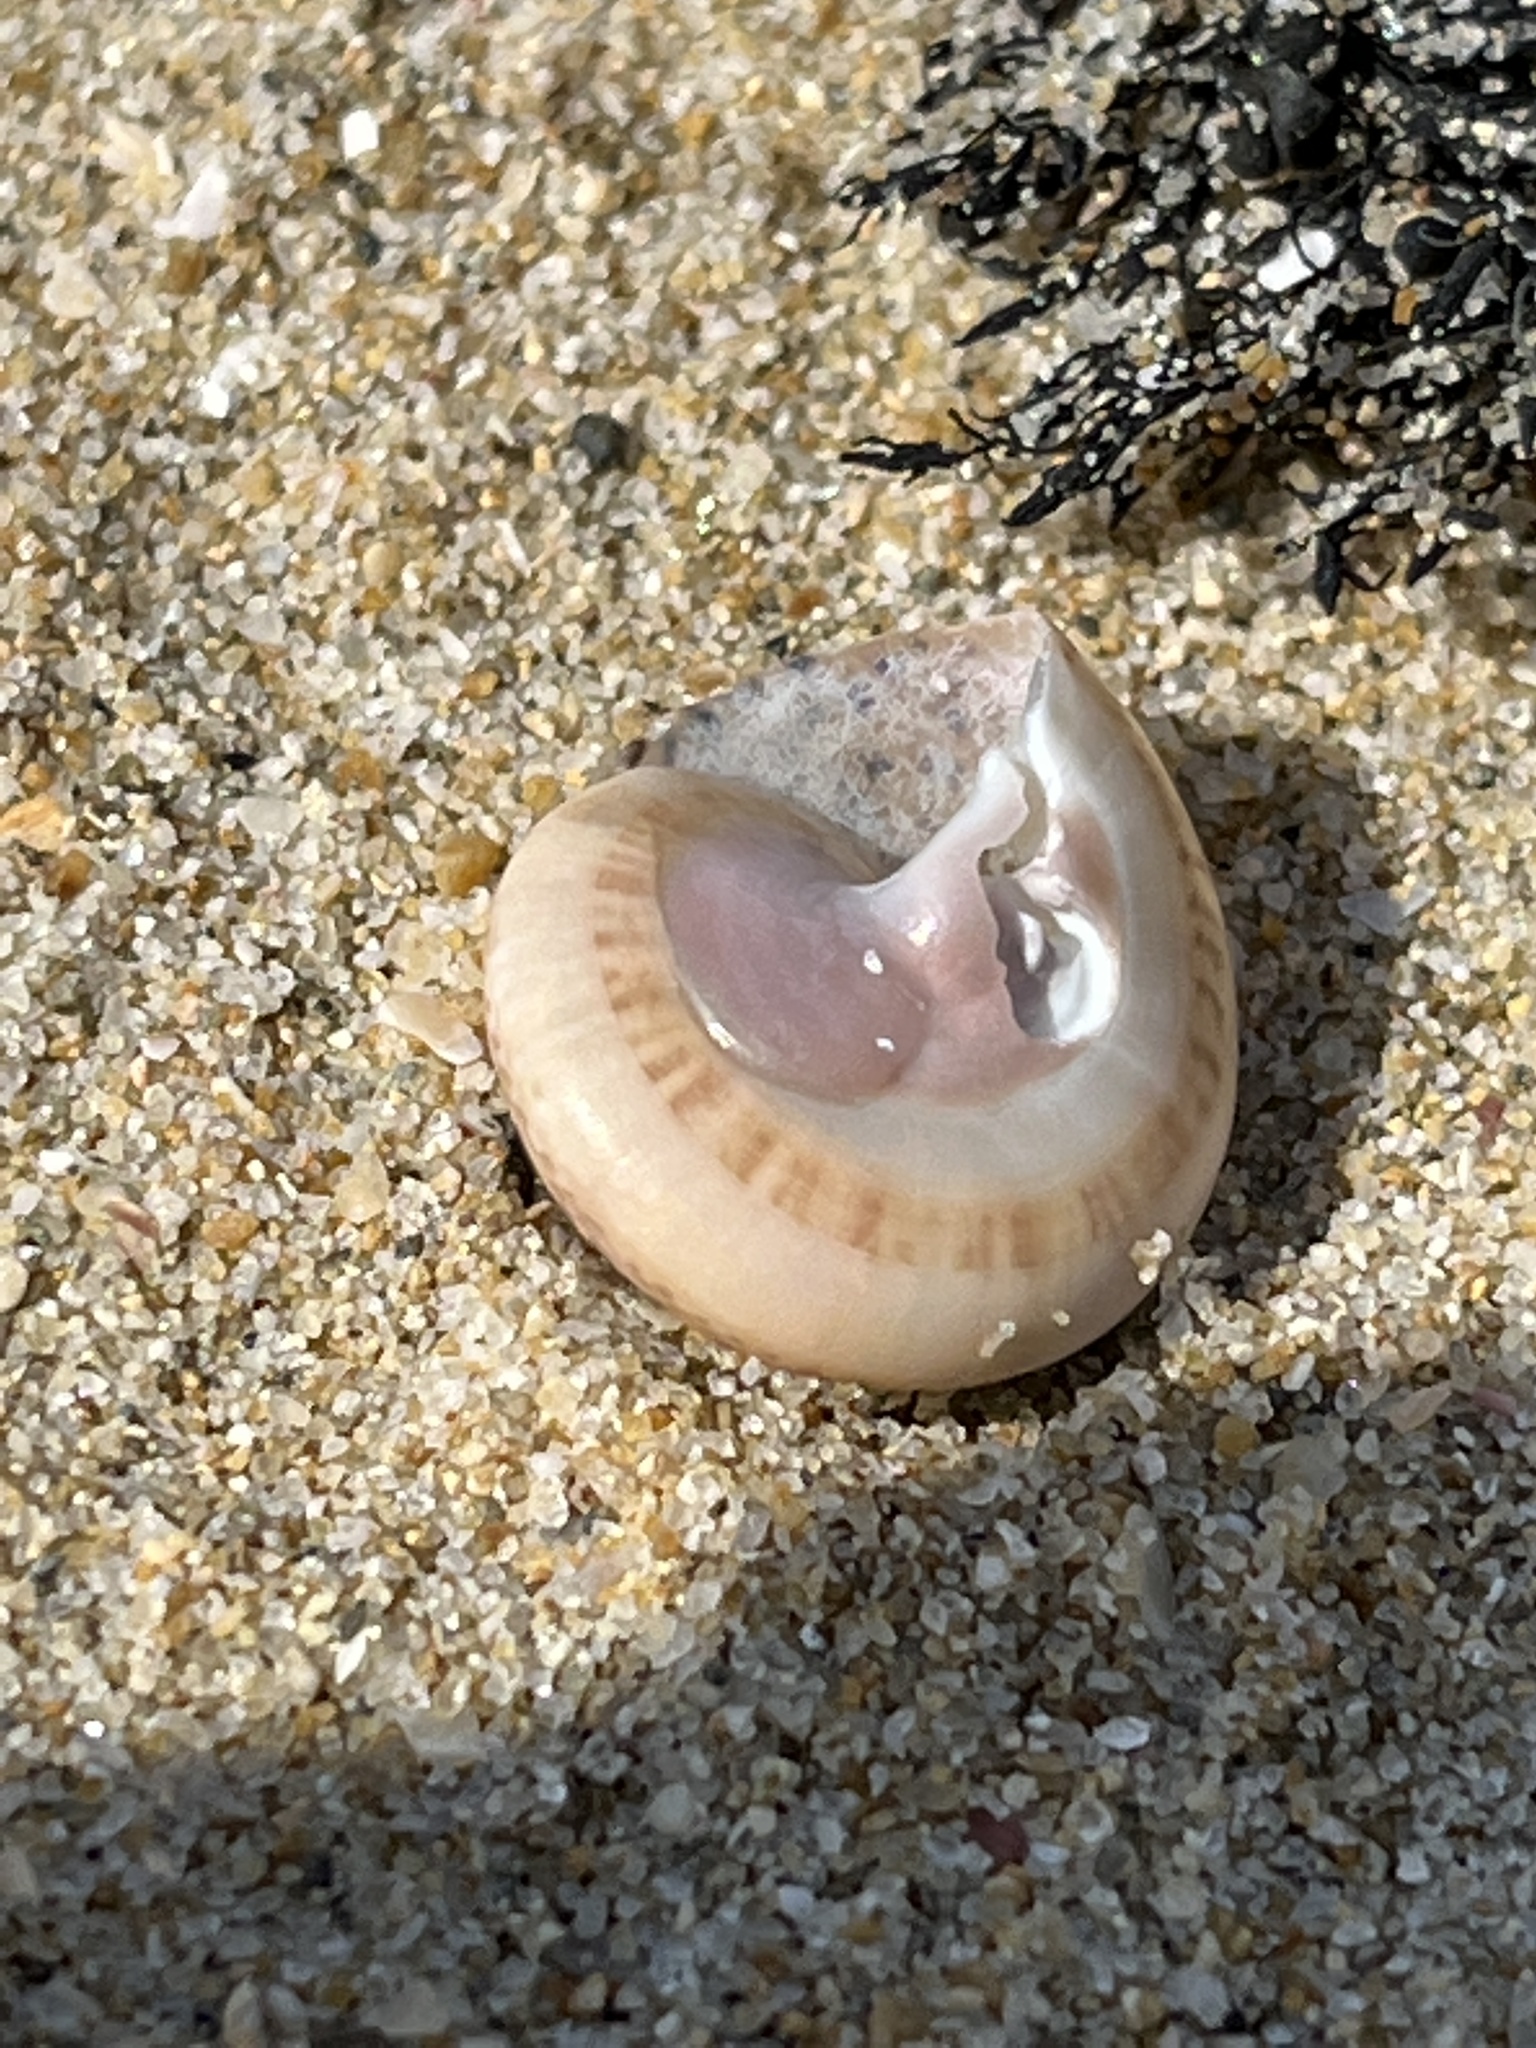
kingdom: Animalia
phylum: Mollusca
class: Gastropoda
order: Trochida
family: Trochidae
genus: Umbonium
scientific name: Umbonium costatum
